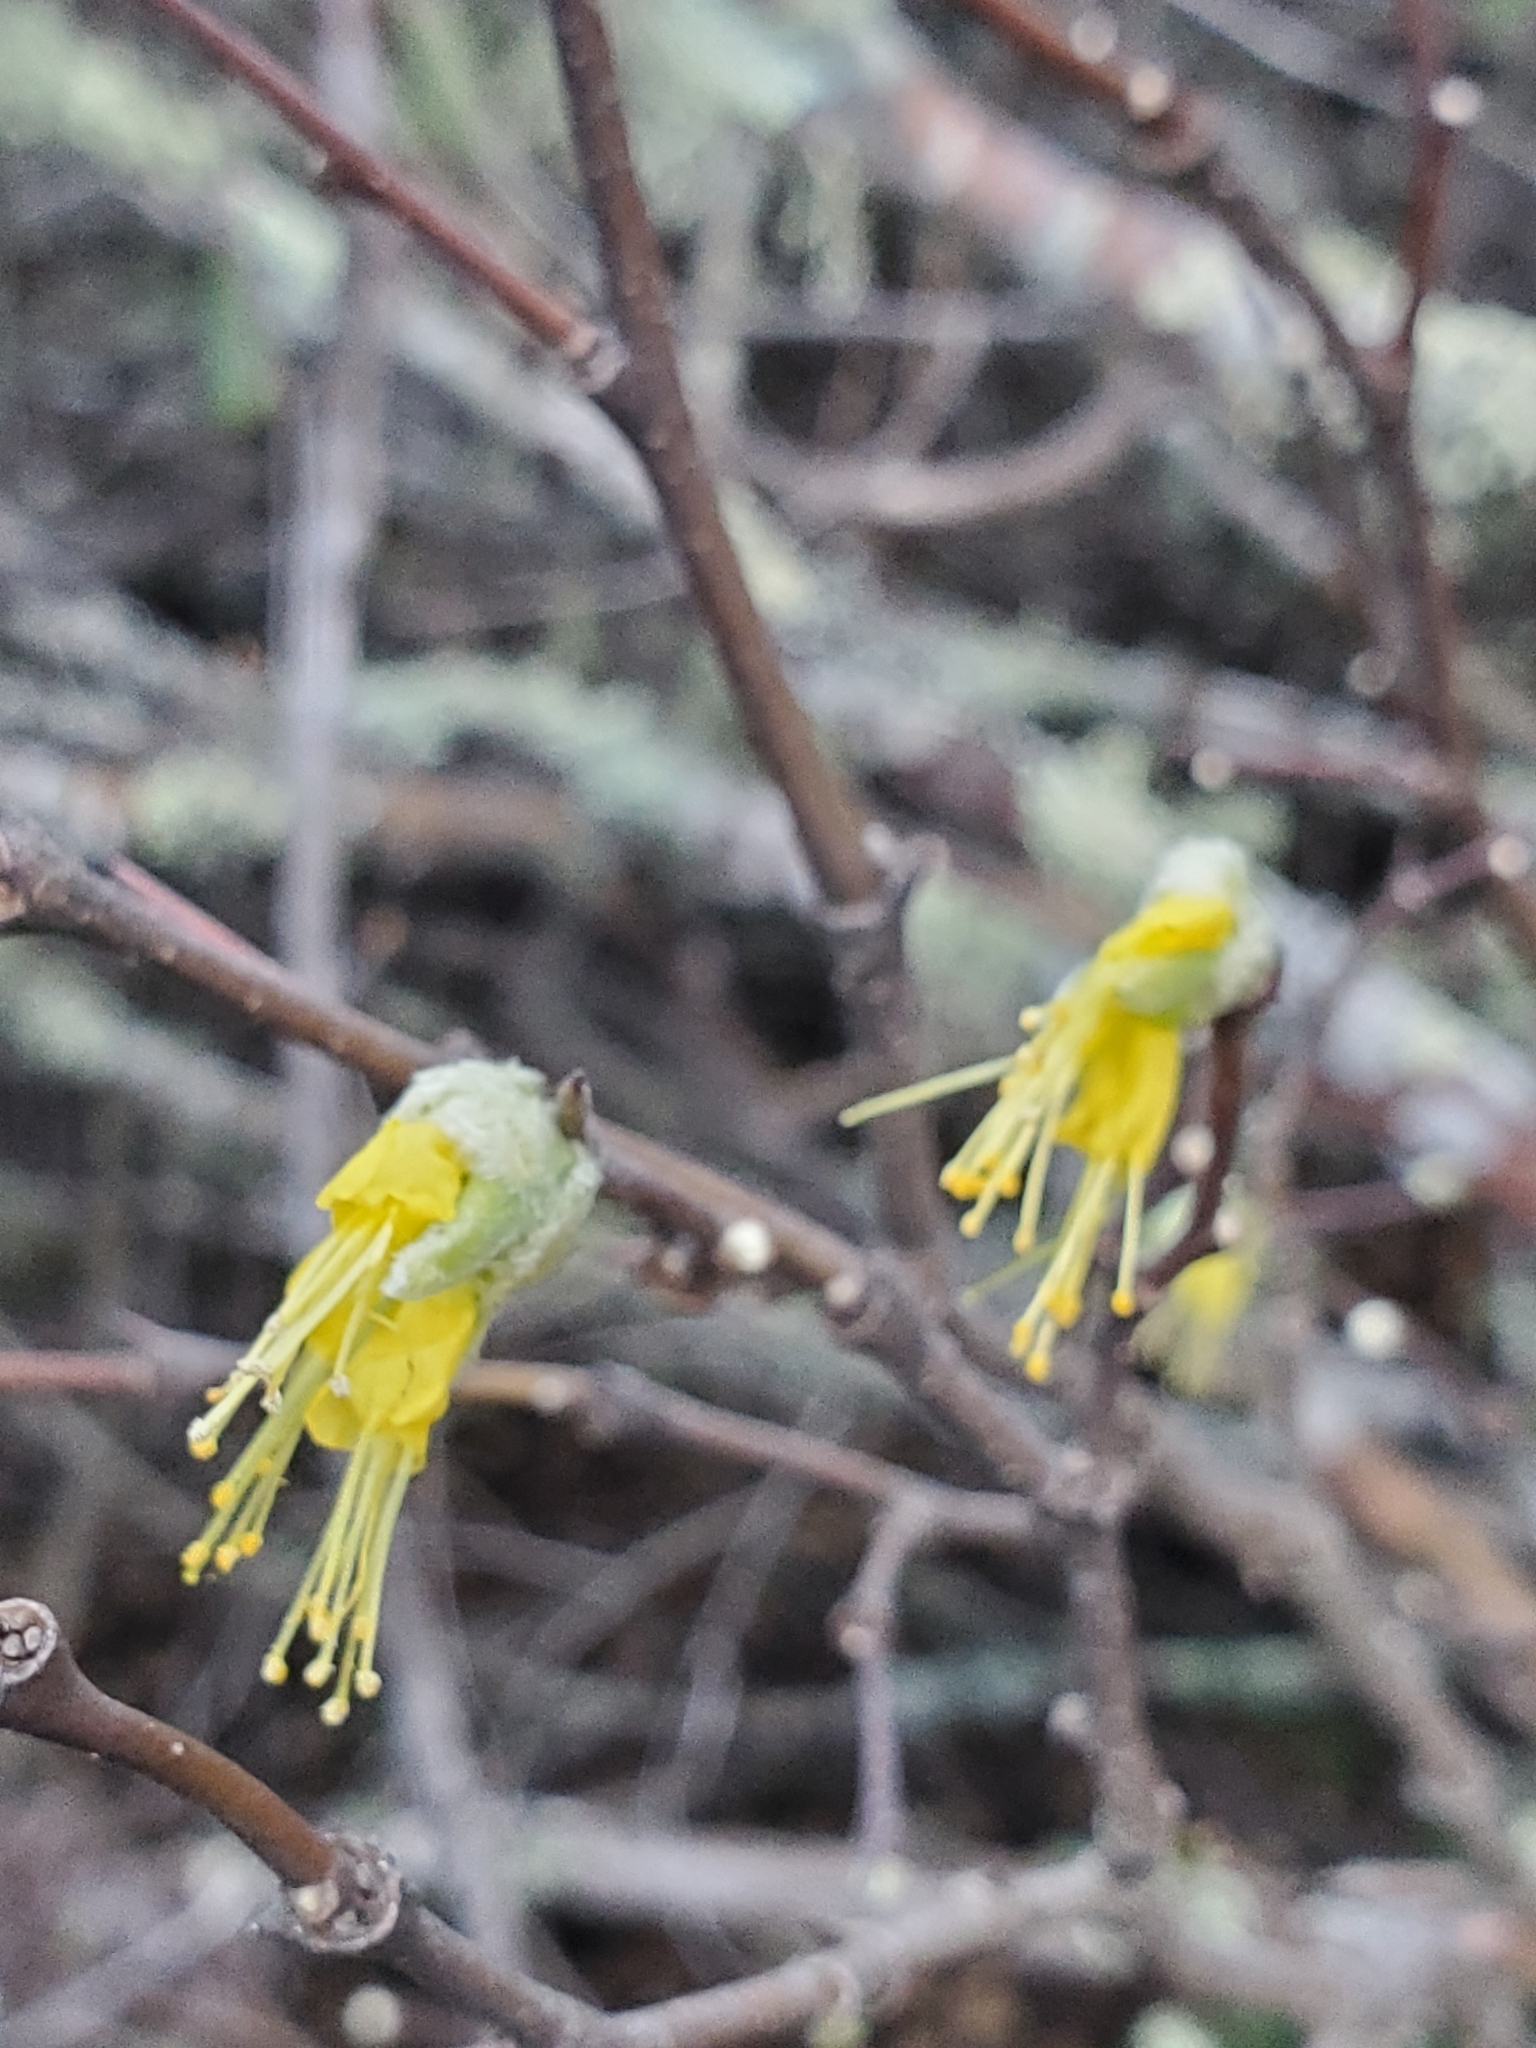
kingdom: Plantae
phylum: Tracheophyta
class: Magnoliopsida
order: Malvales
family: Thymelaeaceae
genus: Dirca
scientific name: Dirca occidentalis
